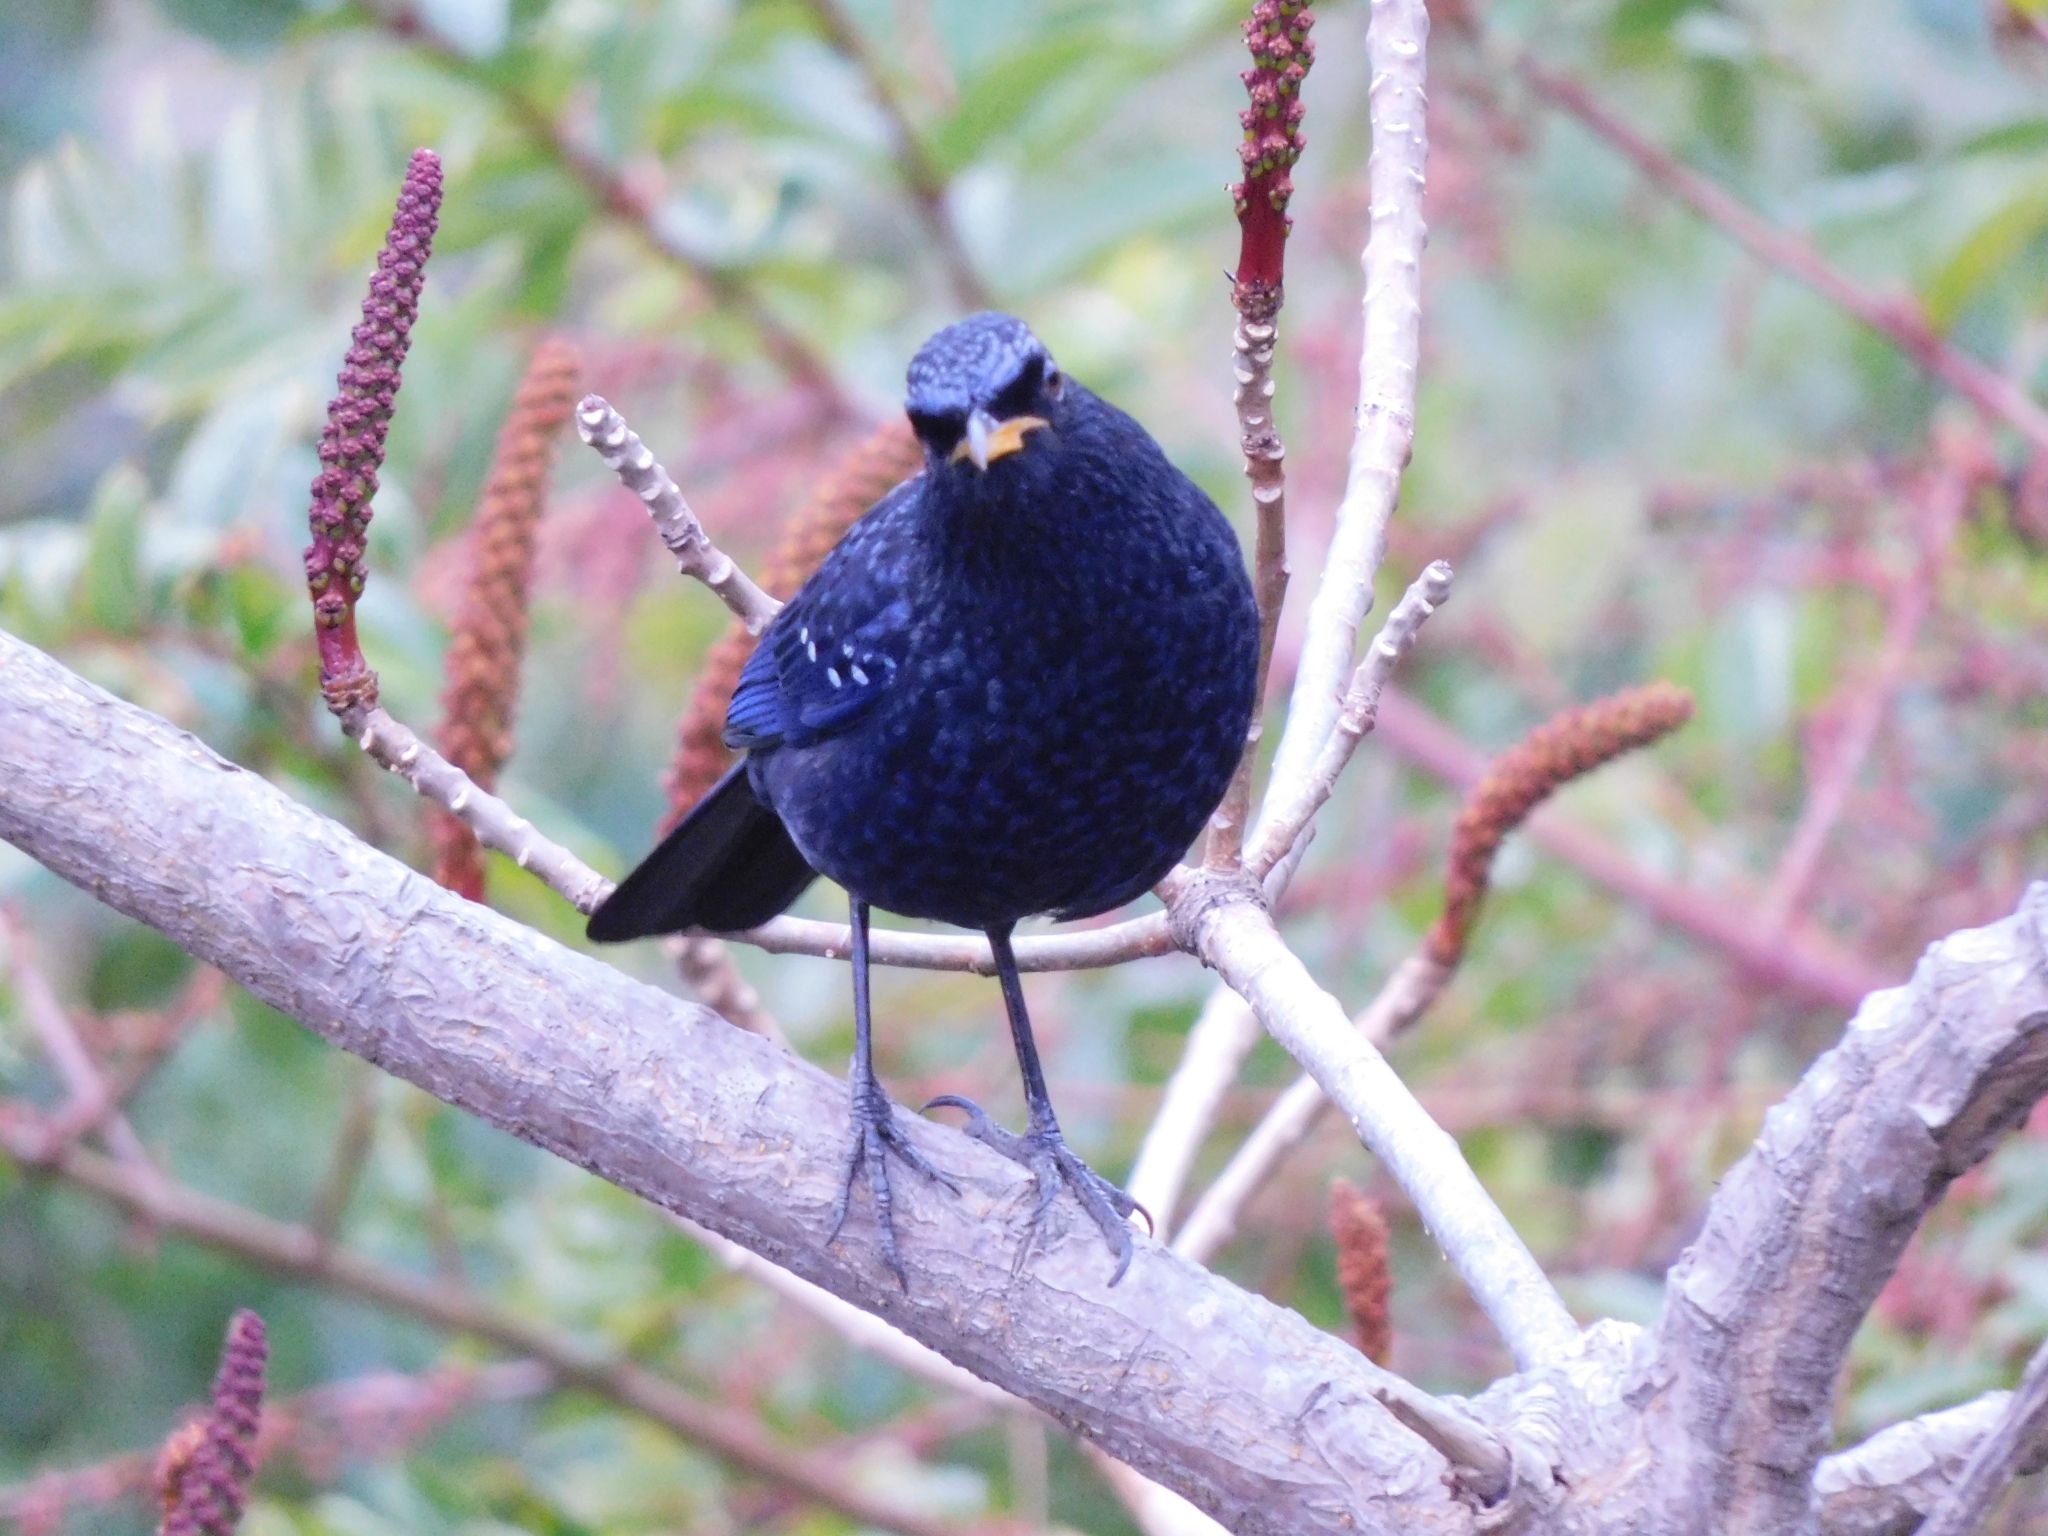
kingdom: Animalia
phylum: Chordata
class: Aves
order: Passeriformes
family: Muscicapidae
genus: Myophonus
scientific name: Myophonus caeruleus
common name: Blue whistling-thrush
